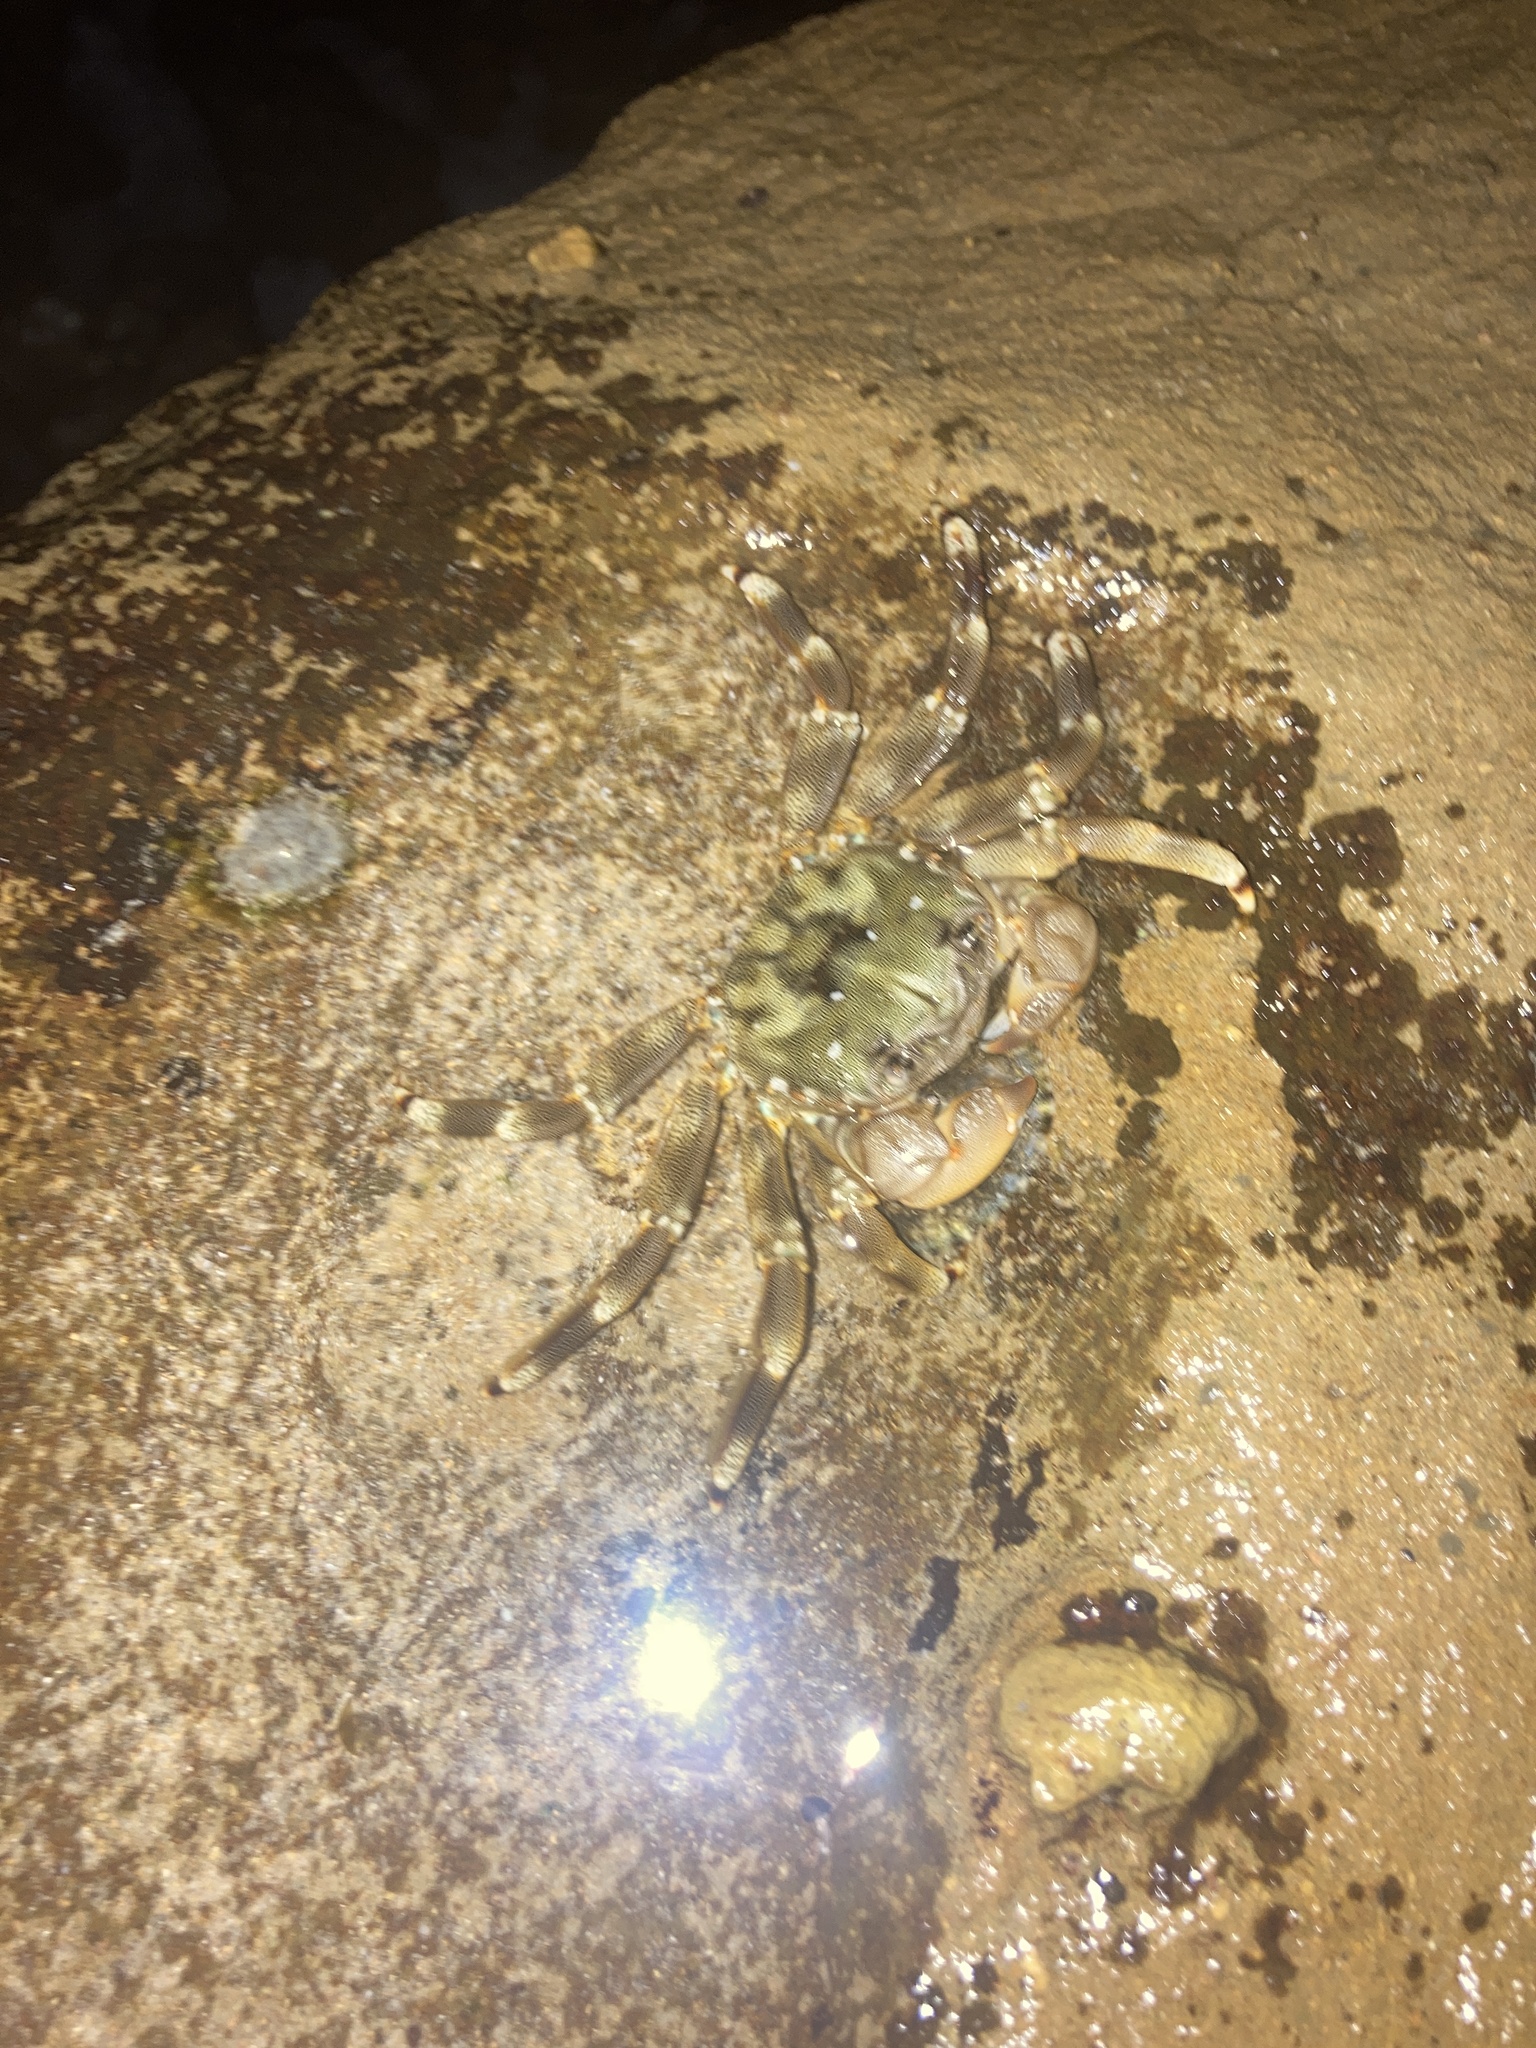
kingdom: Animalia
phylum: Arthropoda
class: Malacostraca
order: Decapoda
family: Plagusiidae
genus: Davusia
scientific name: Davusia glabra
